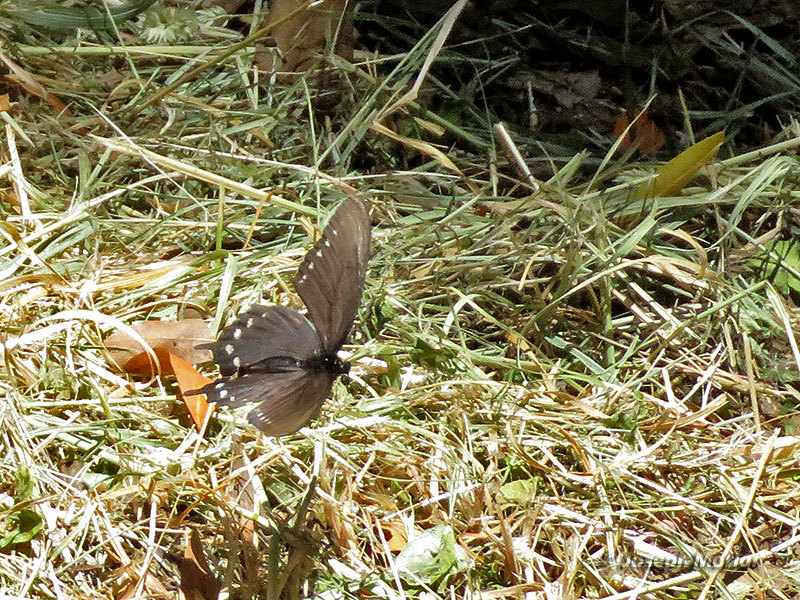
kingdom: Animalia
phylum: Arthropoda
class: Insecta
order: Lepidoptera
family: Papilionidae
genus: Battus
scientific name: Battus philenor
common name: Pipevine swallowtail
